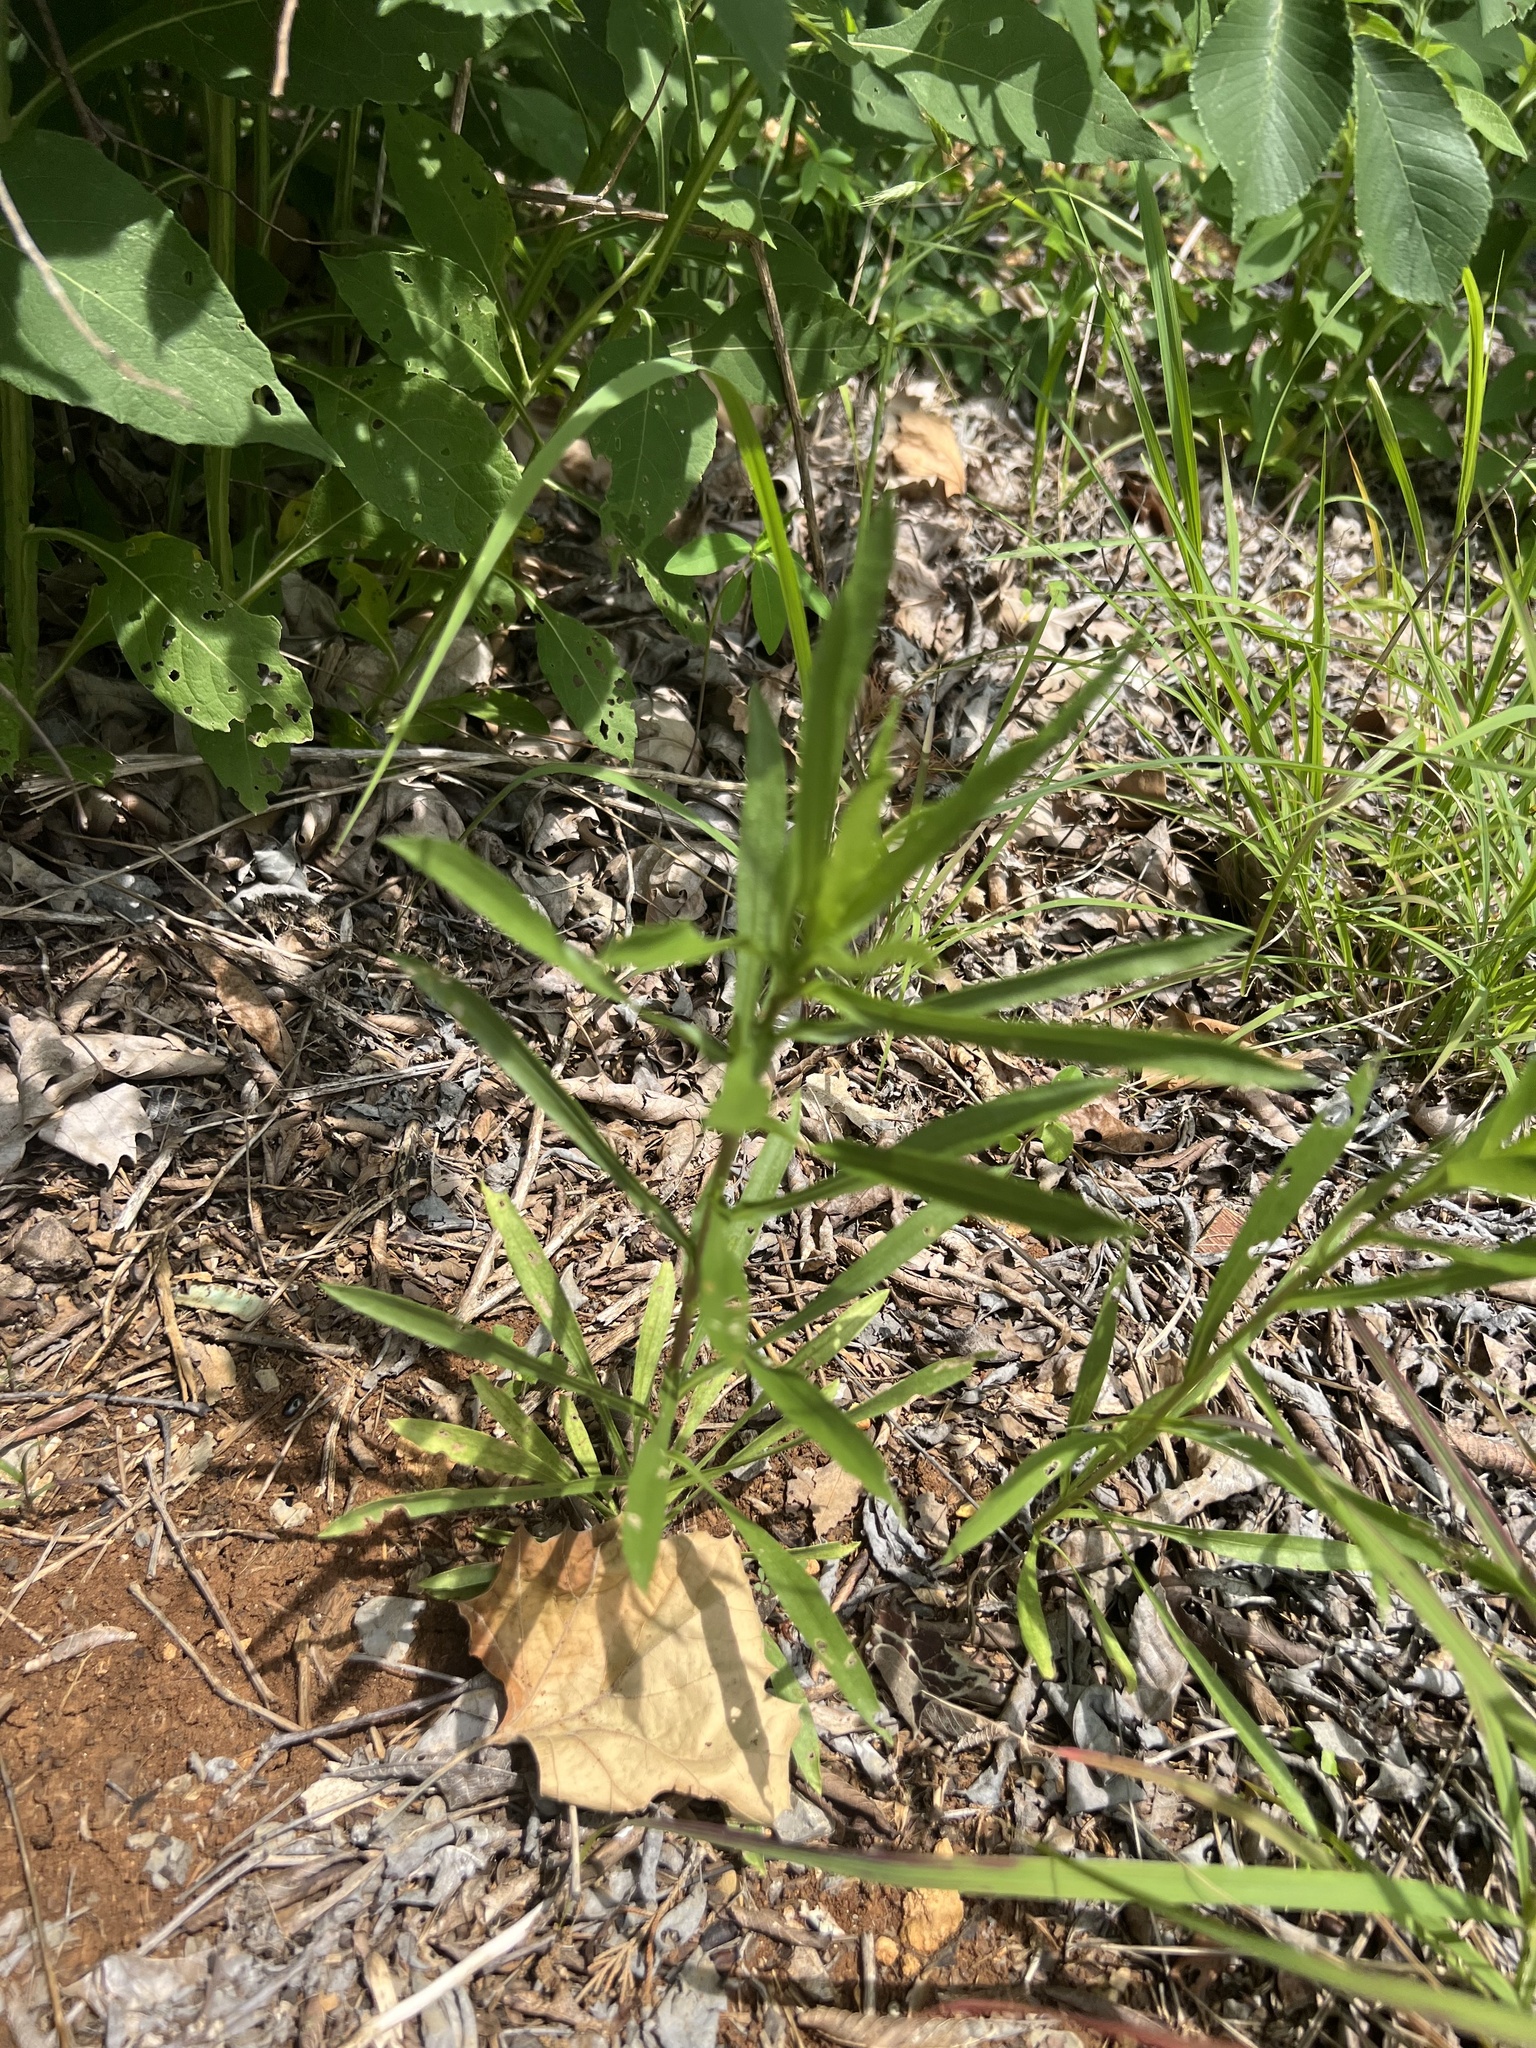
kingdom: Plantae
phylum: Tracheophyta
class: Magnoliopsida
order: Asterales
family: Asteraceae
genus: Grindelia
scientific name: Grindelia lanceolata
